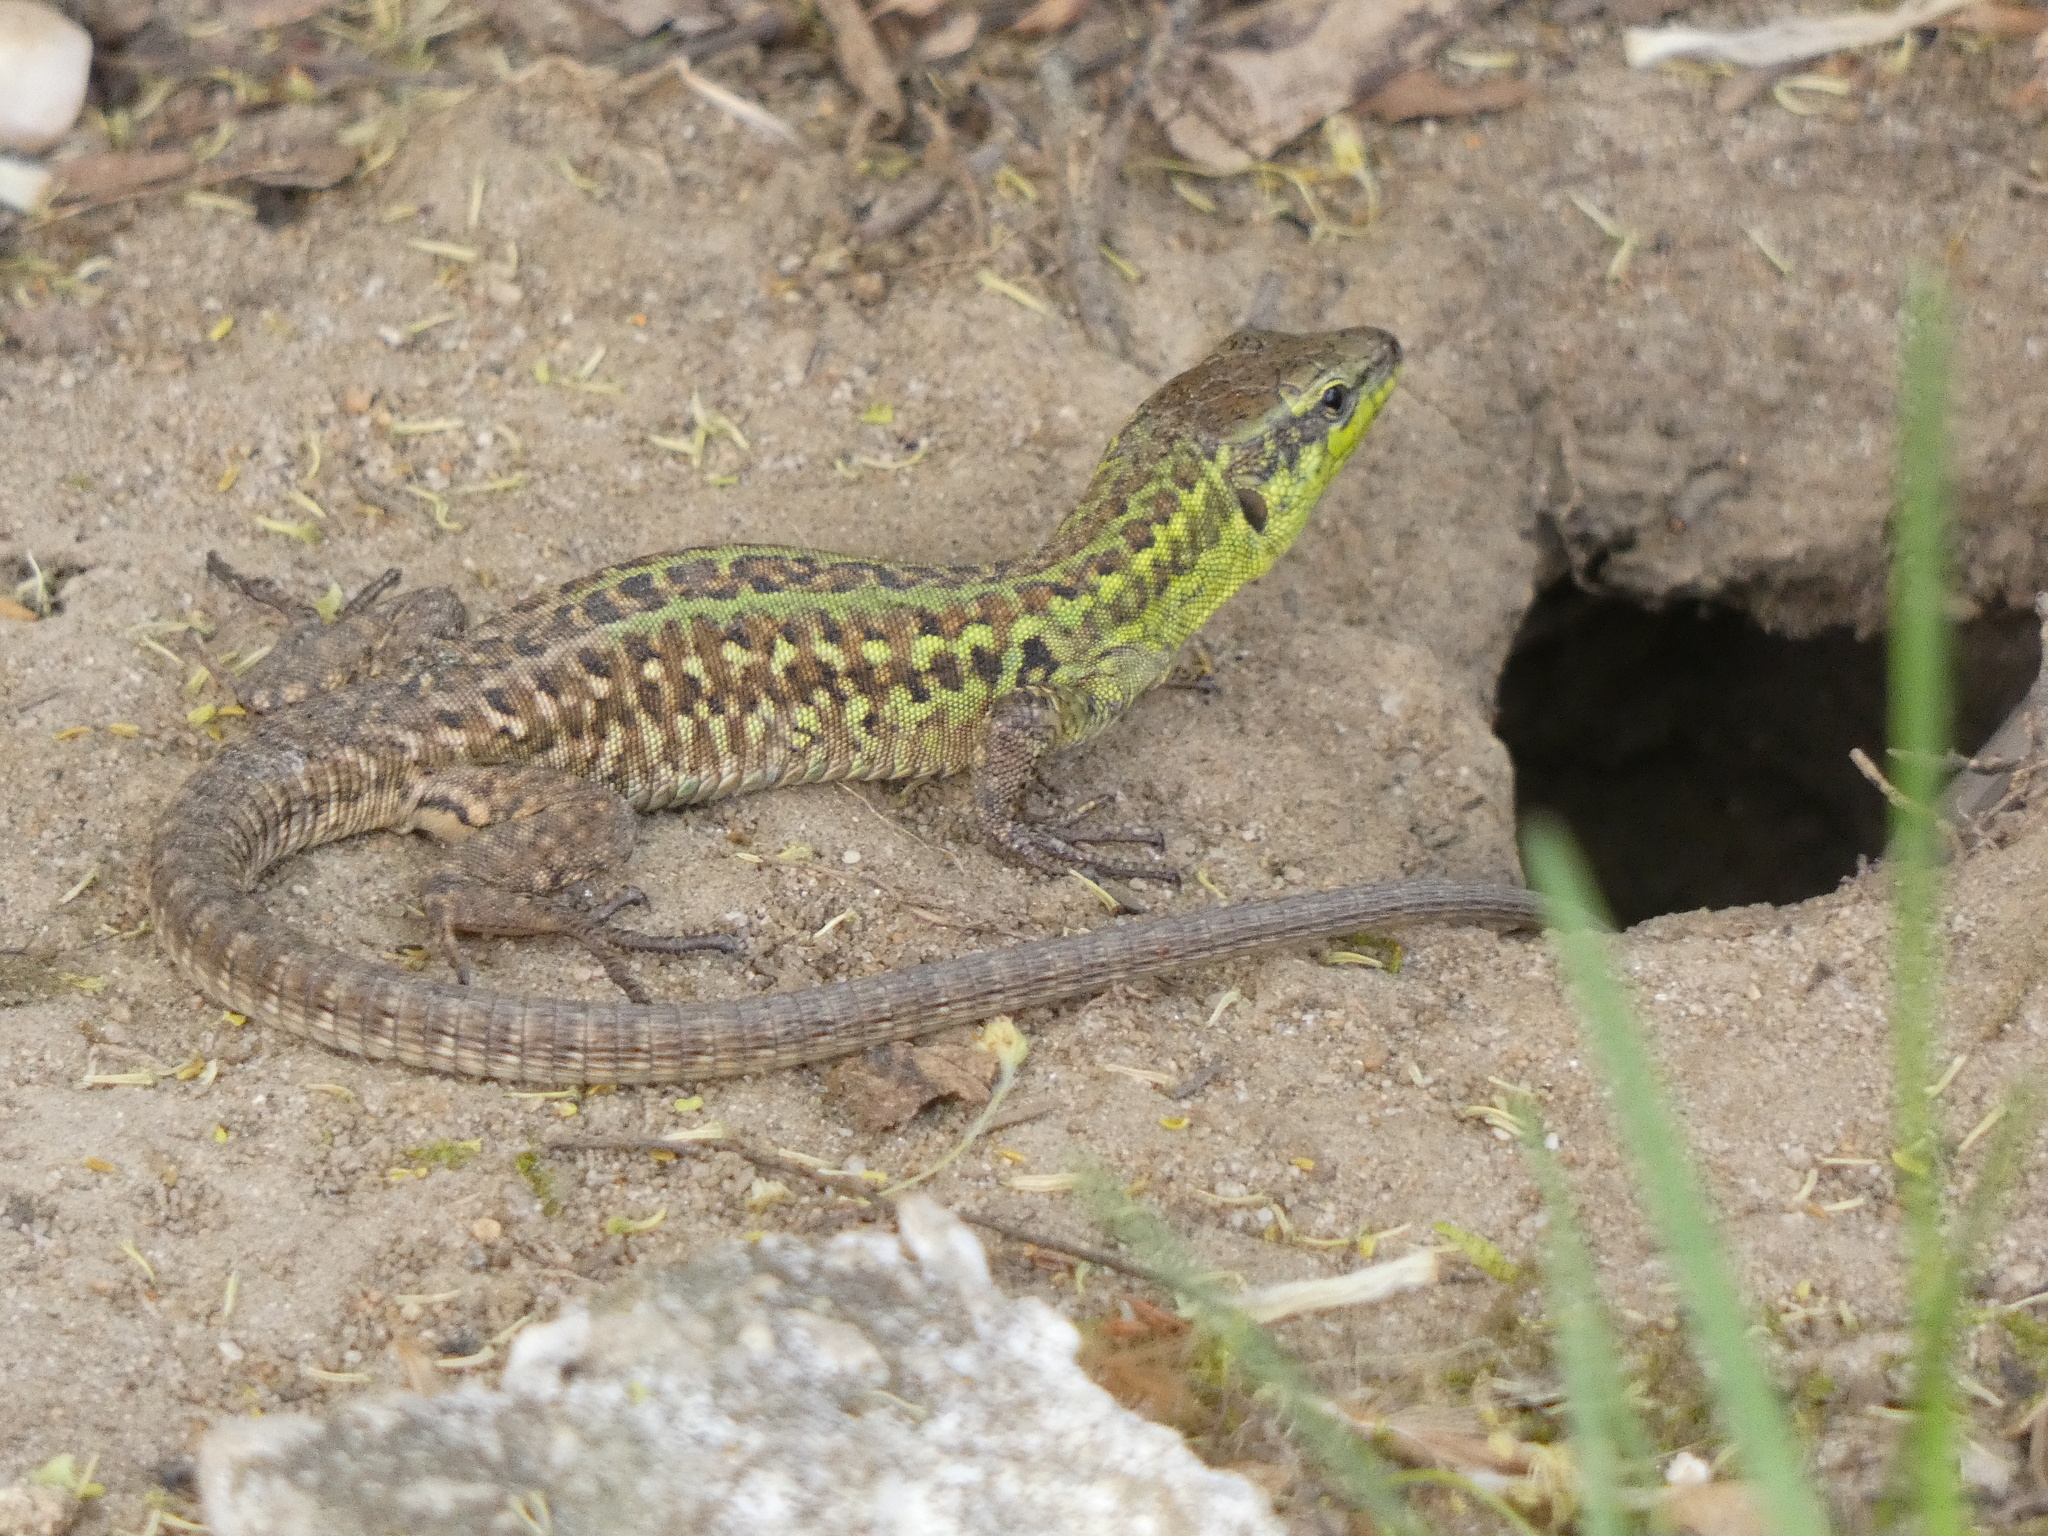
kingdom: Animalia
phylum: Chordata
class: Squamata
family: Lacertidae
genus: Podarcis
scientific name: Podarcis siculus
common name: Italian wall lizard
